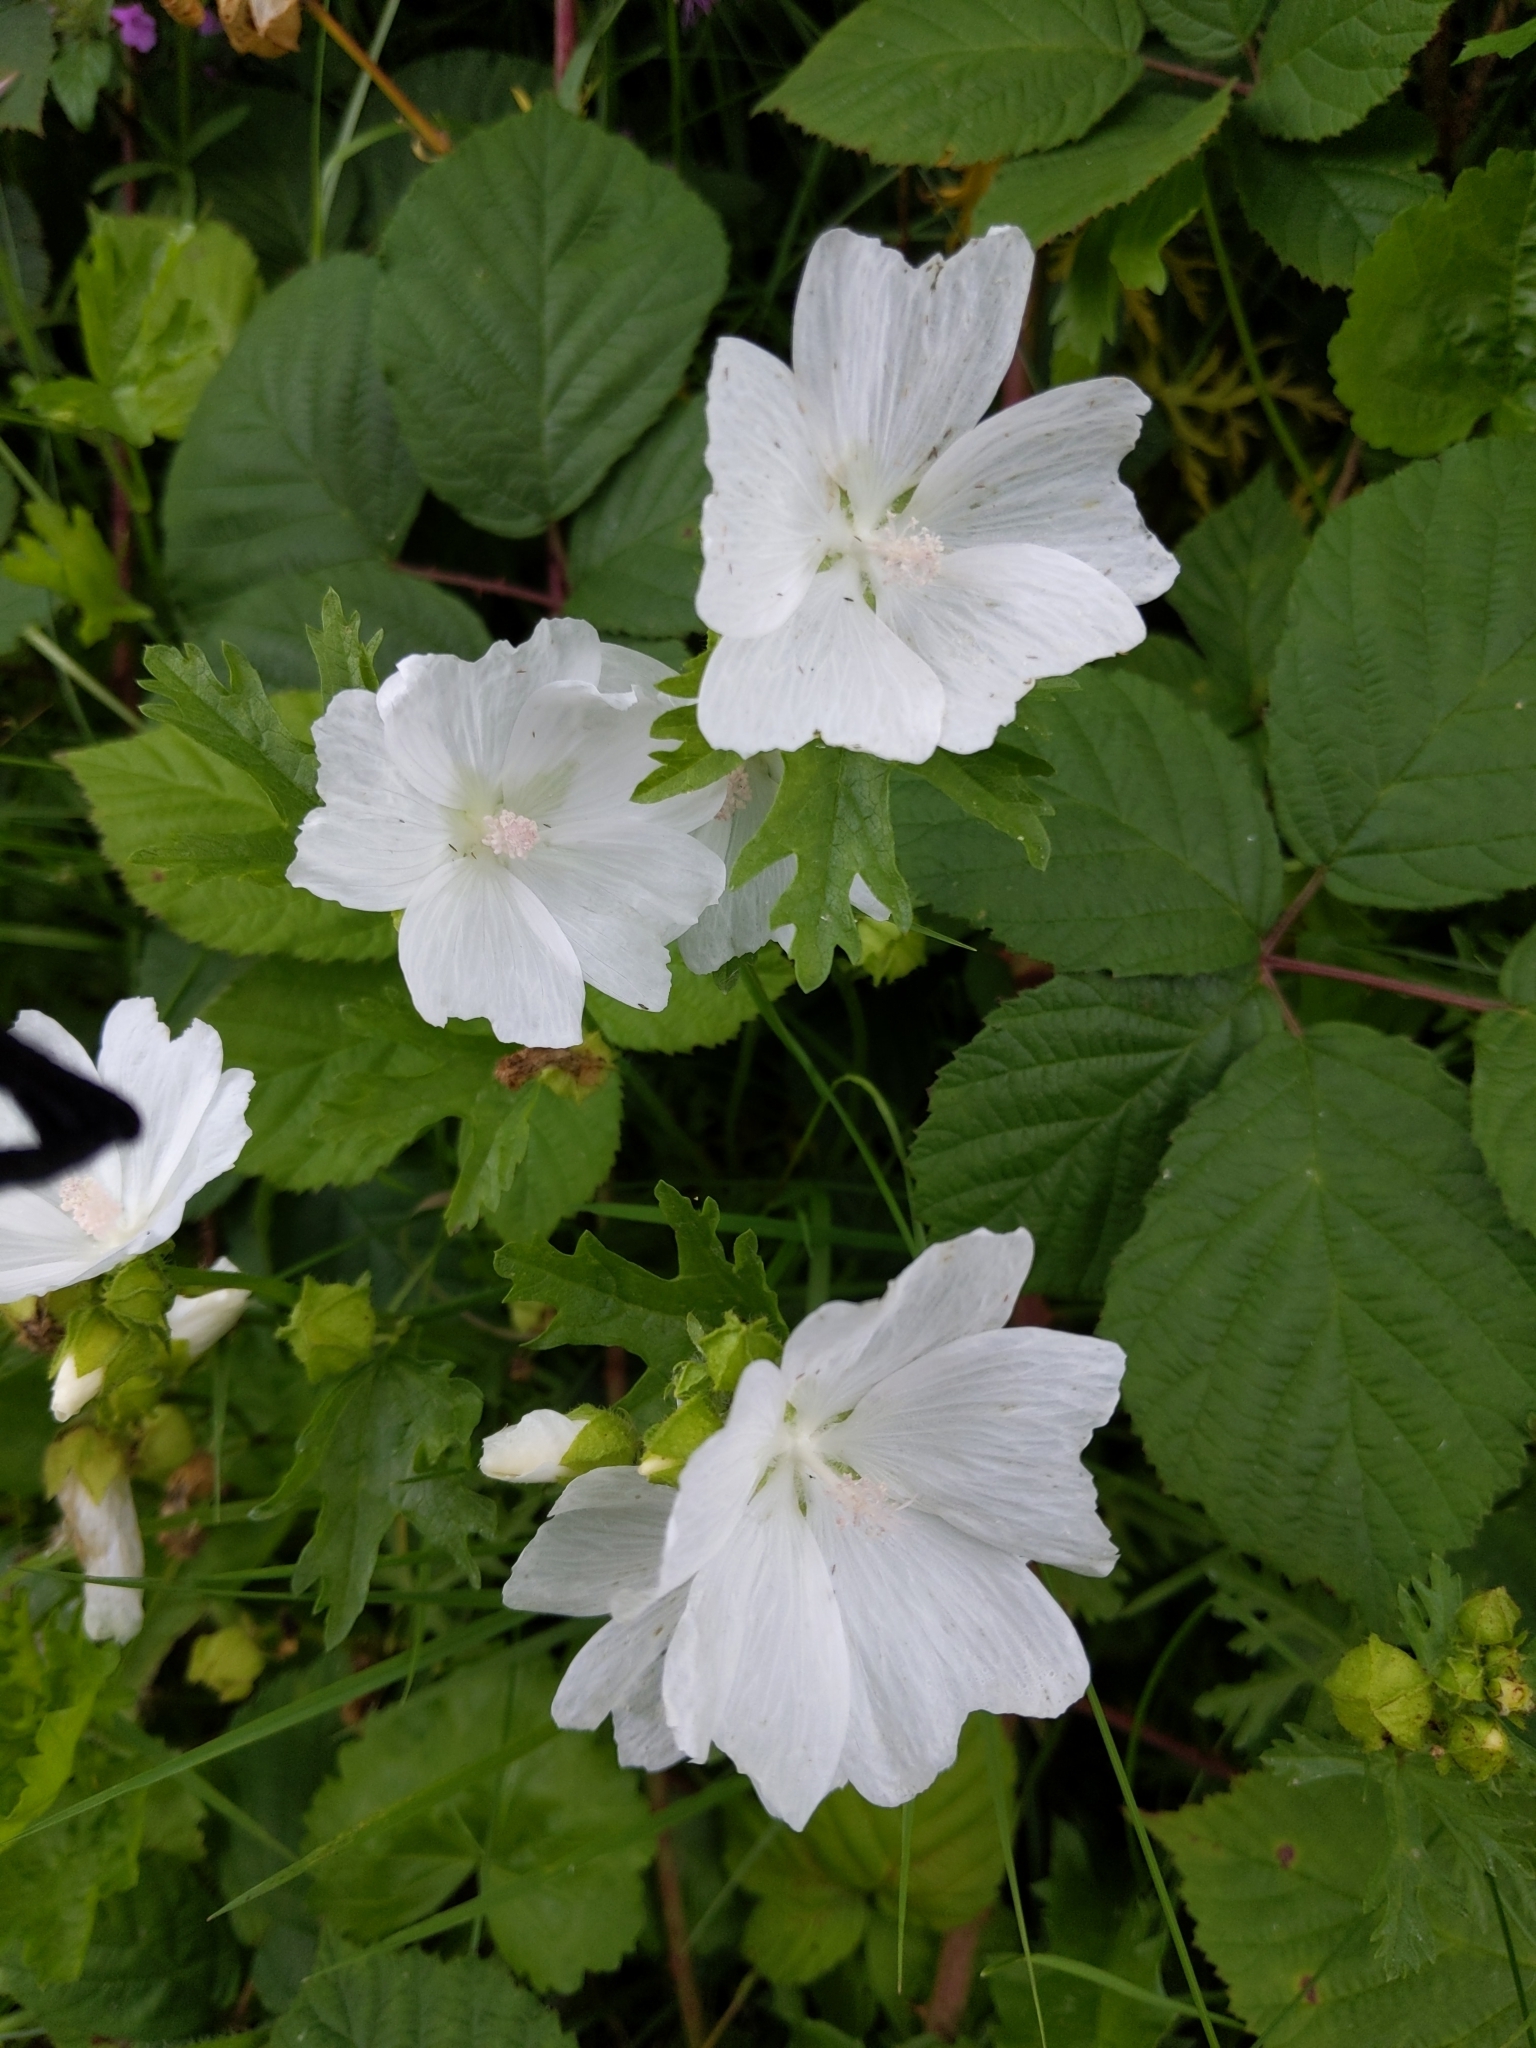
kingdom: Plantae
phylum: Tracheophyta
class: Magnoliopsida
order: Malvales
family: Malvaceae
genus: Malva
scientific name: Malva moschata
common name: Musk mallow
